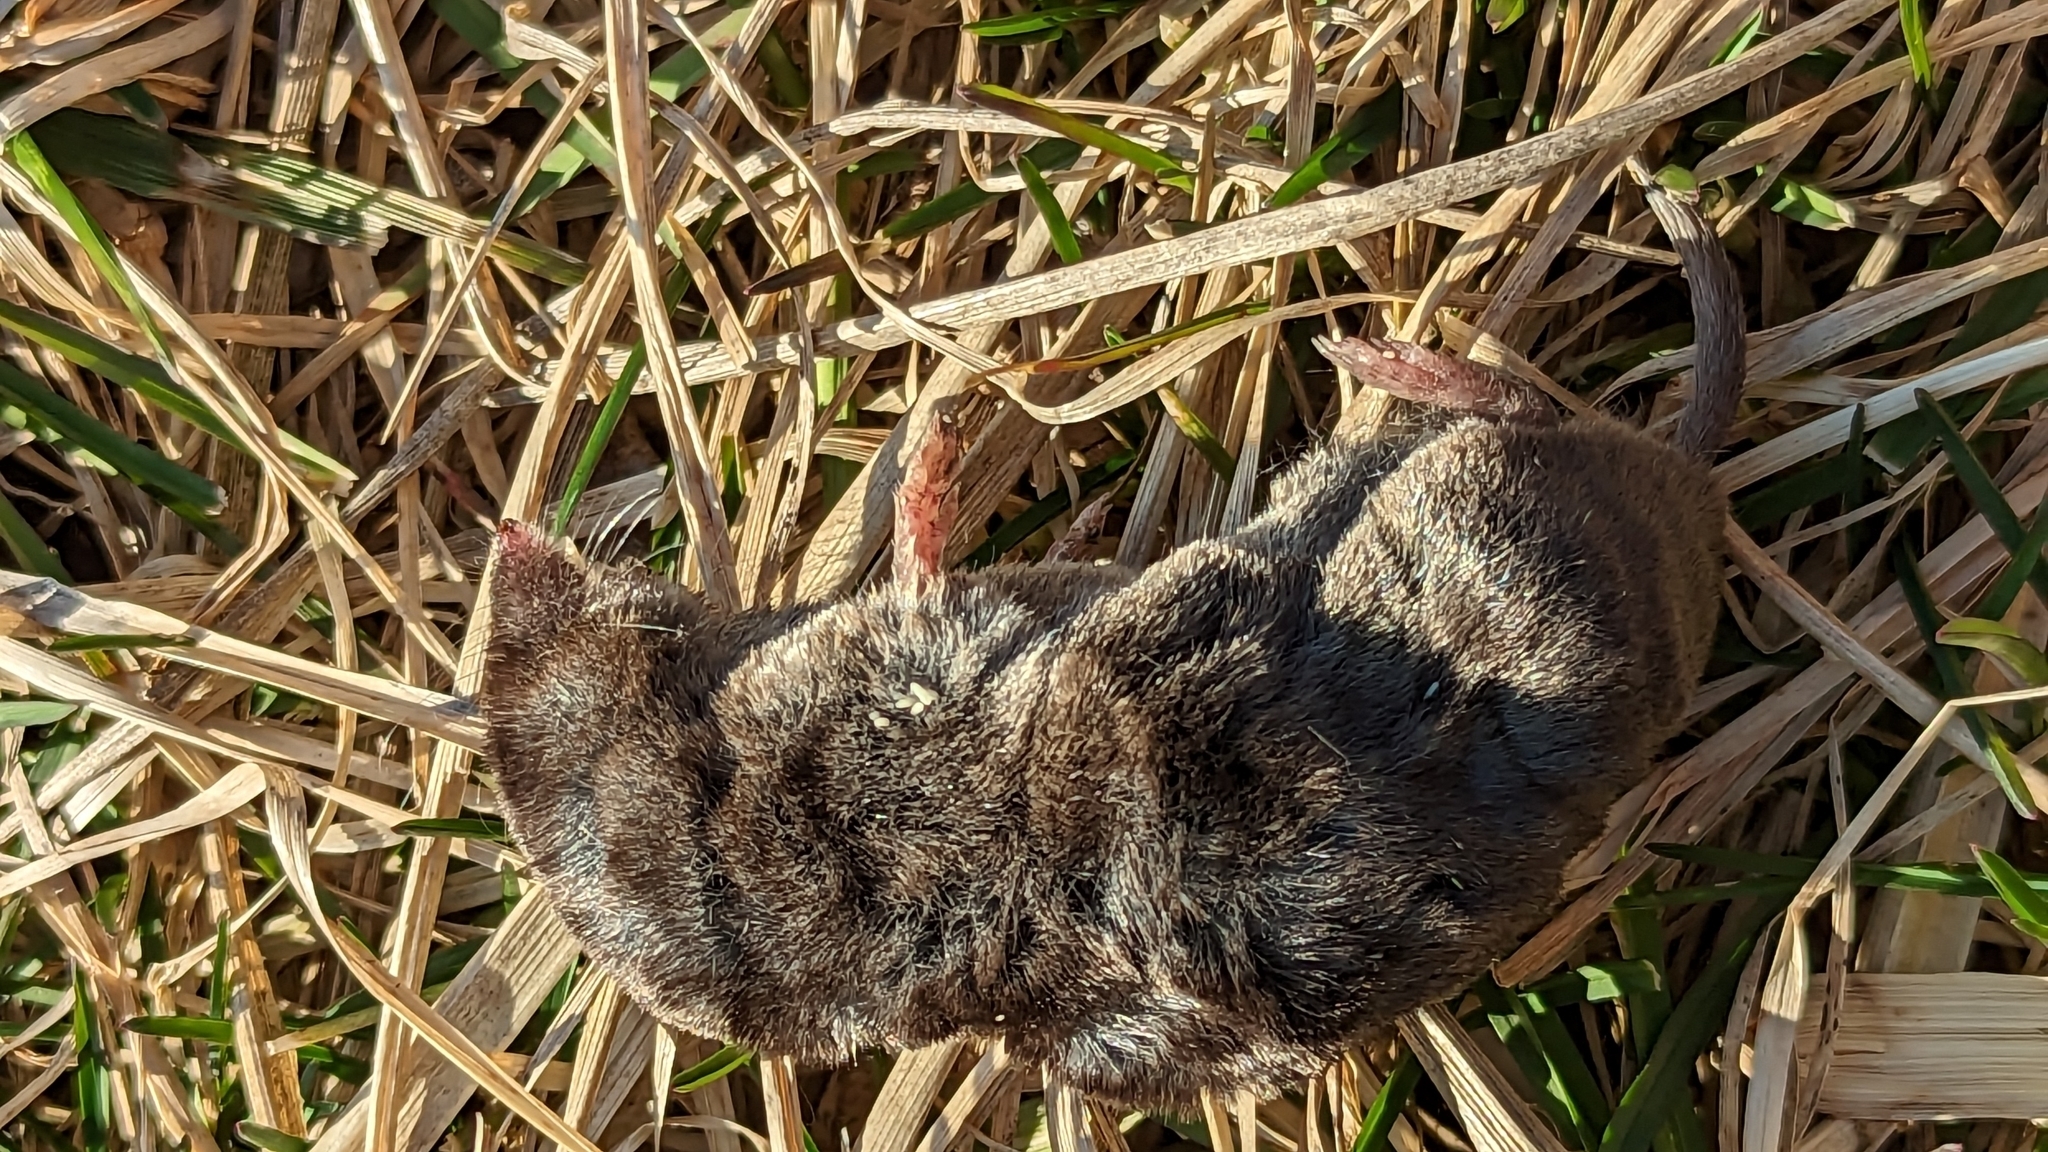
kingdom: Animalia
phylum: Chordata
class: Mammalia
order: Soricomorpha
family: Soricidae
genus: Blarina
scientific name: Blarina brevicauda
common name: Northern short-tailed shrew
